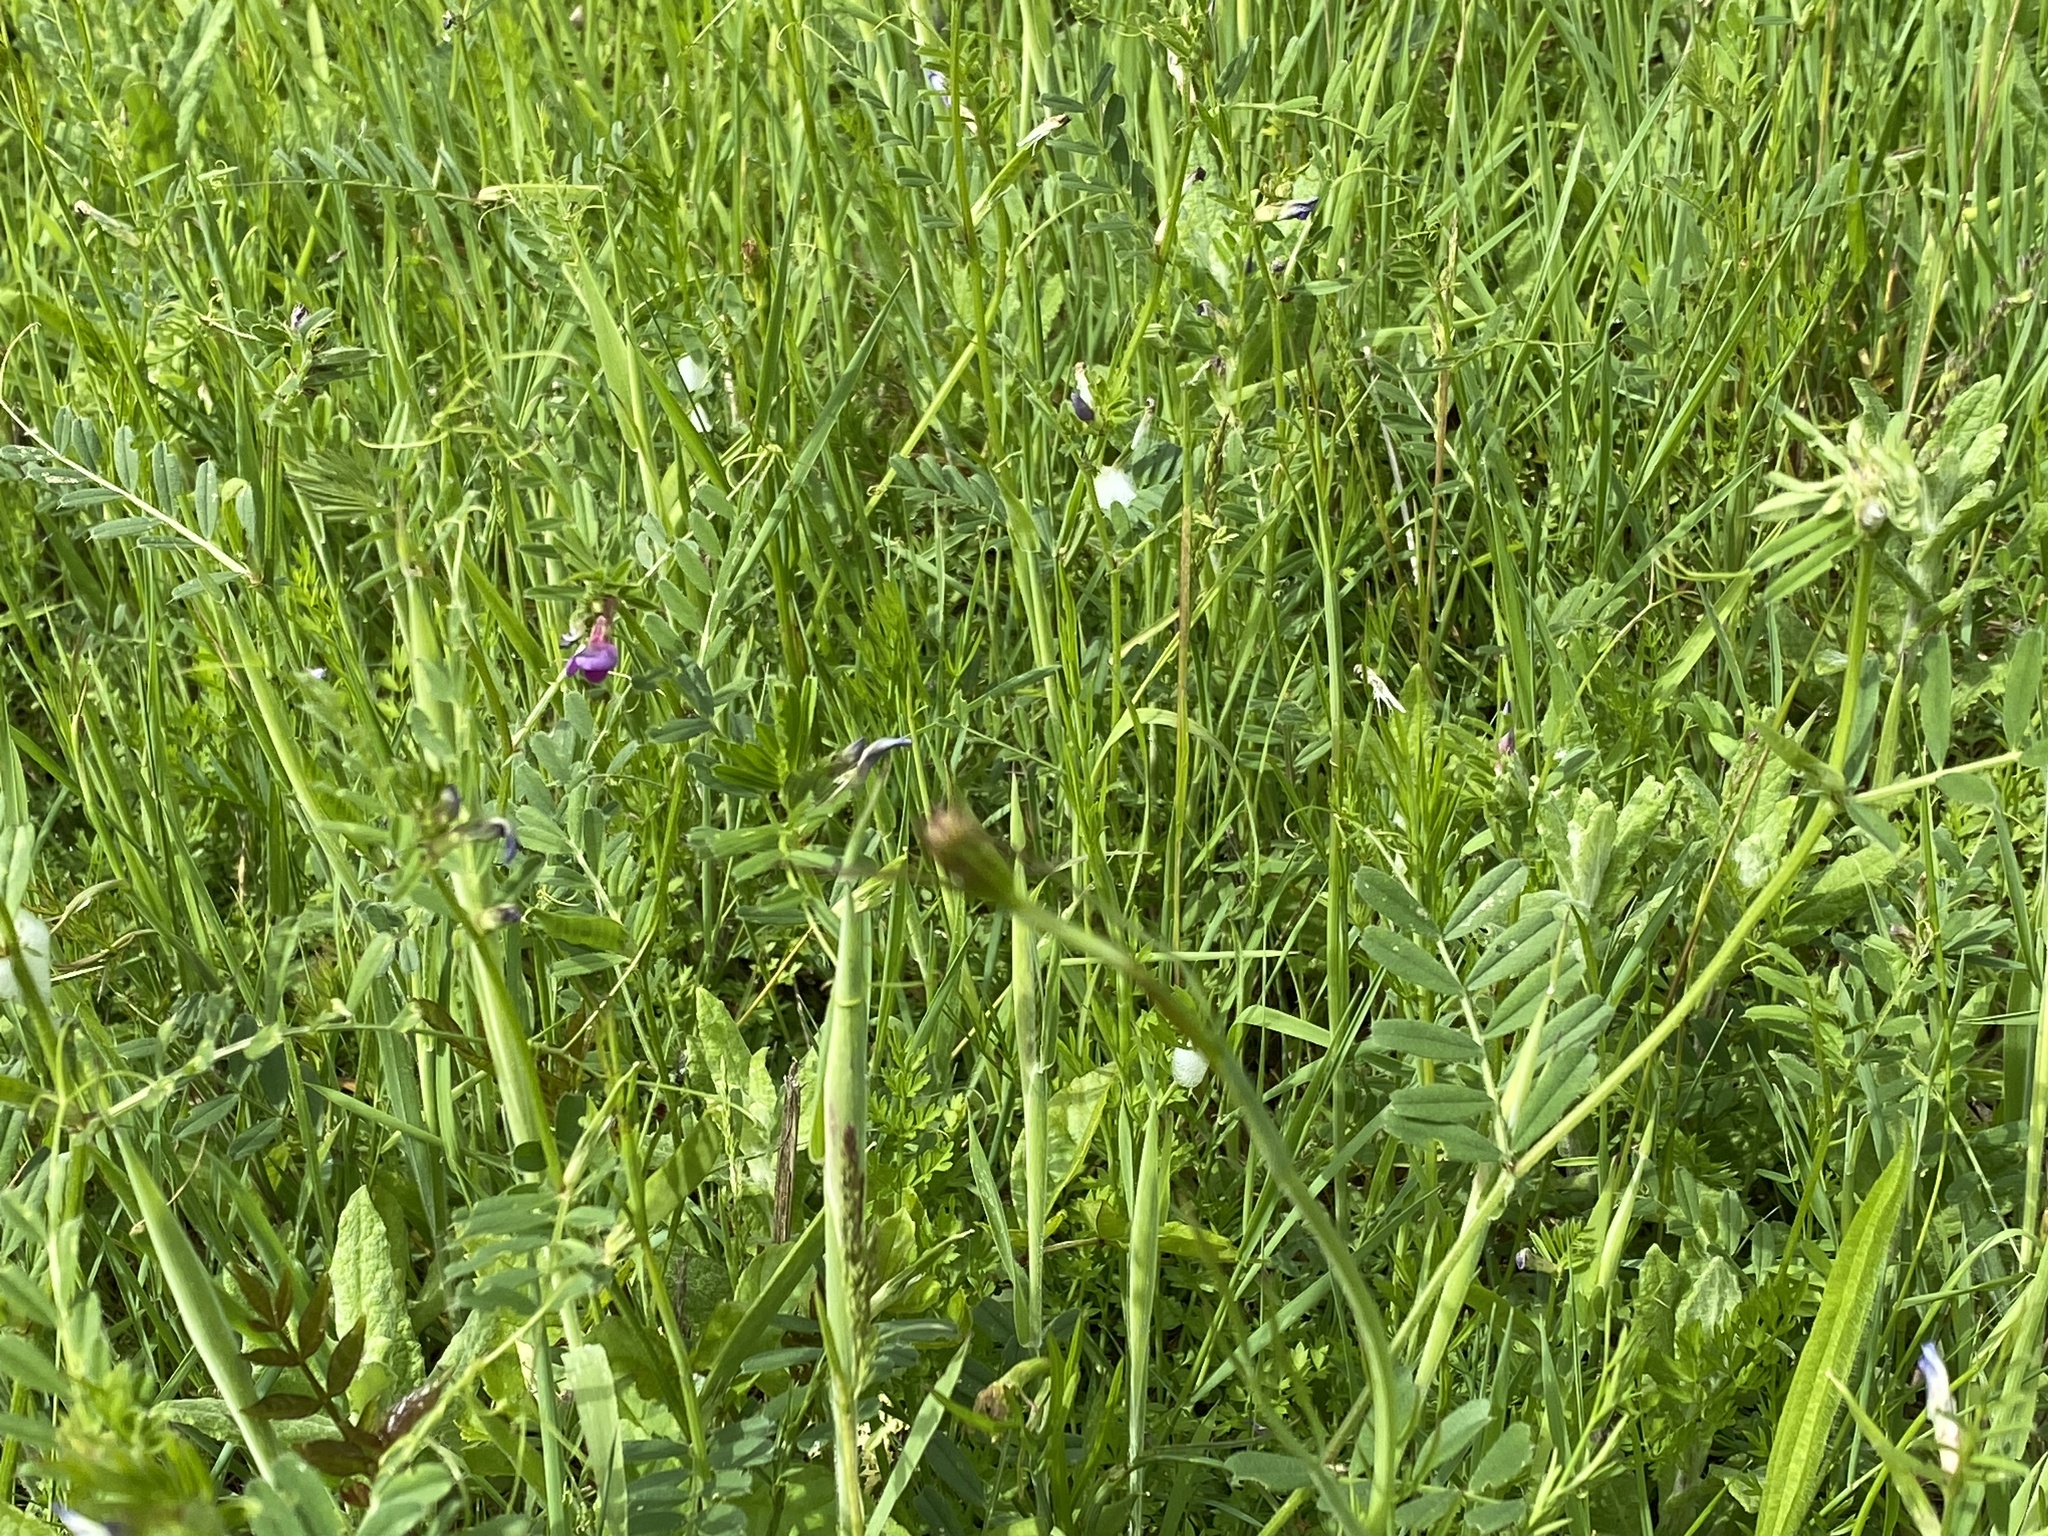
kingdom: Plantae
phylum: Tracheophyta
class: Magnoliopsida
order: Fabales
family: Fabaceae
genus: Vicia
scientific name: Vicia sativa
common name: Garden vetch
